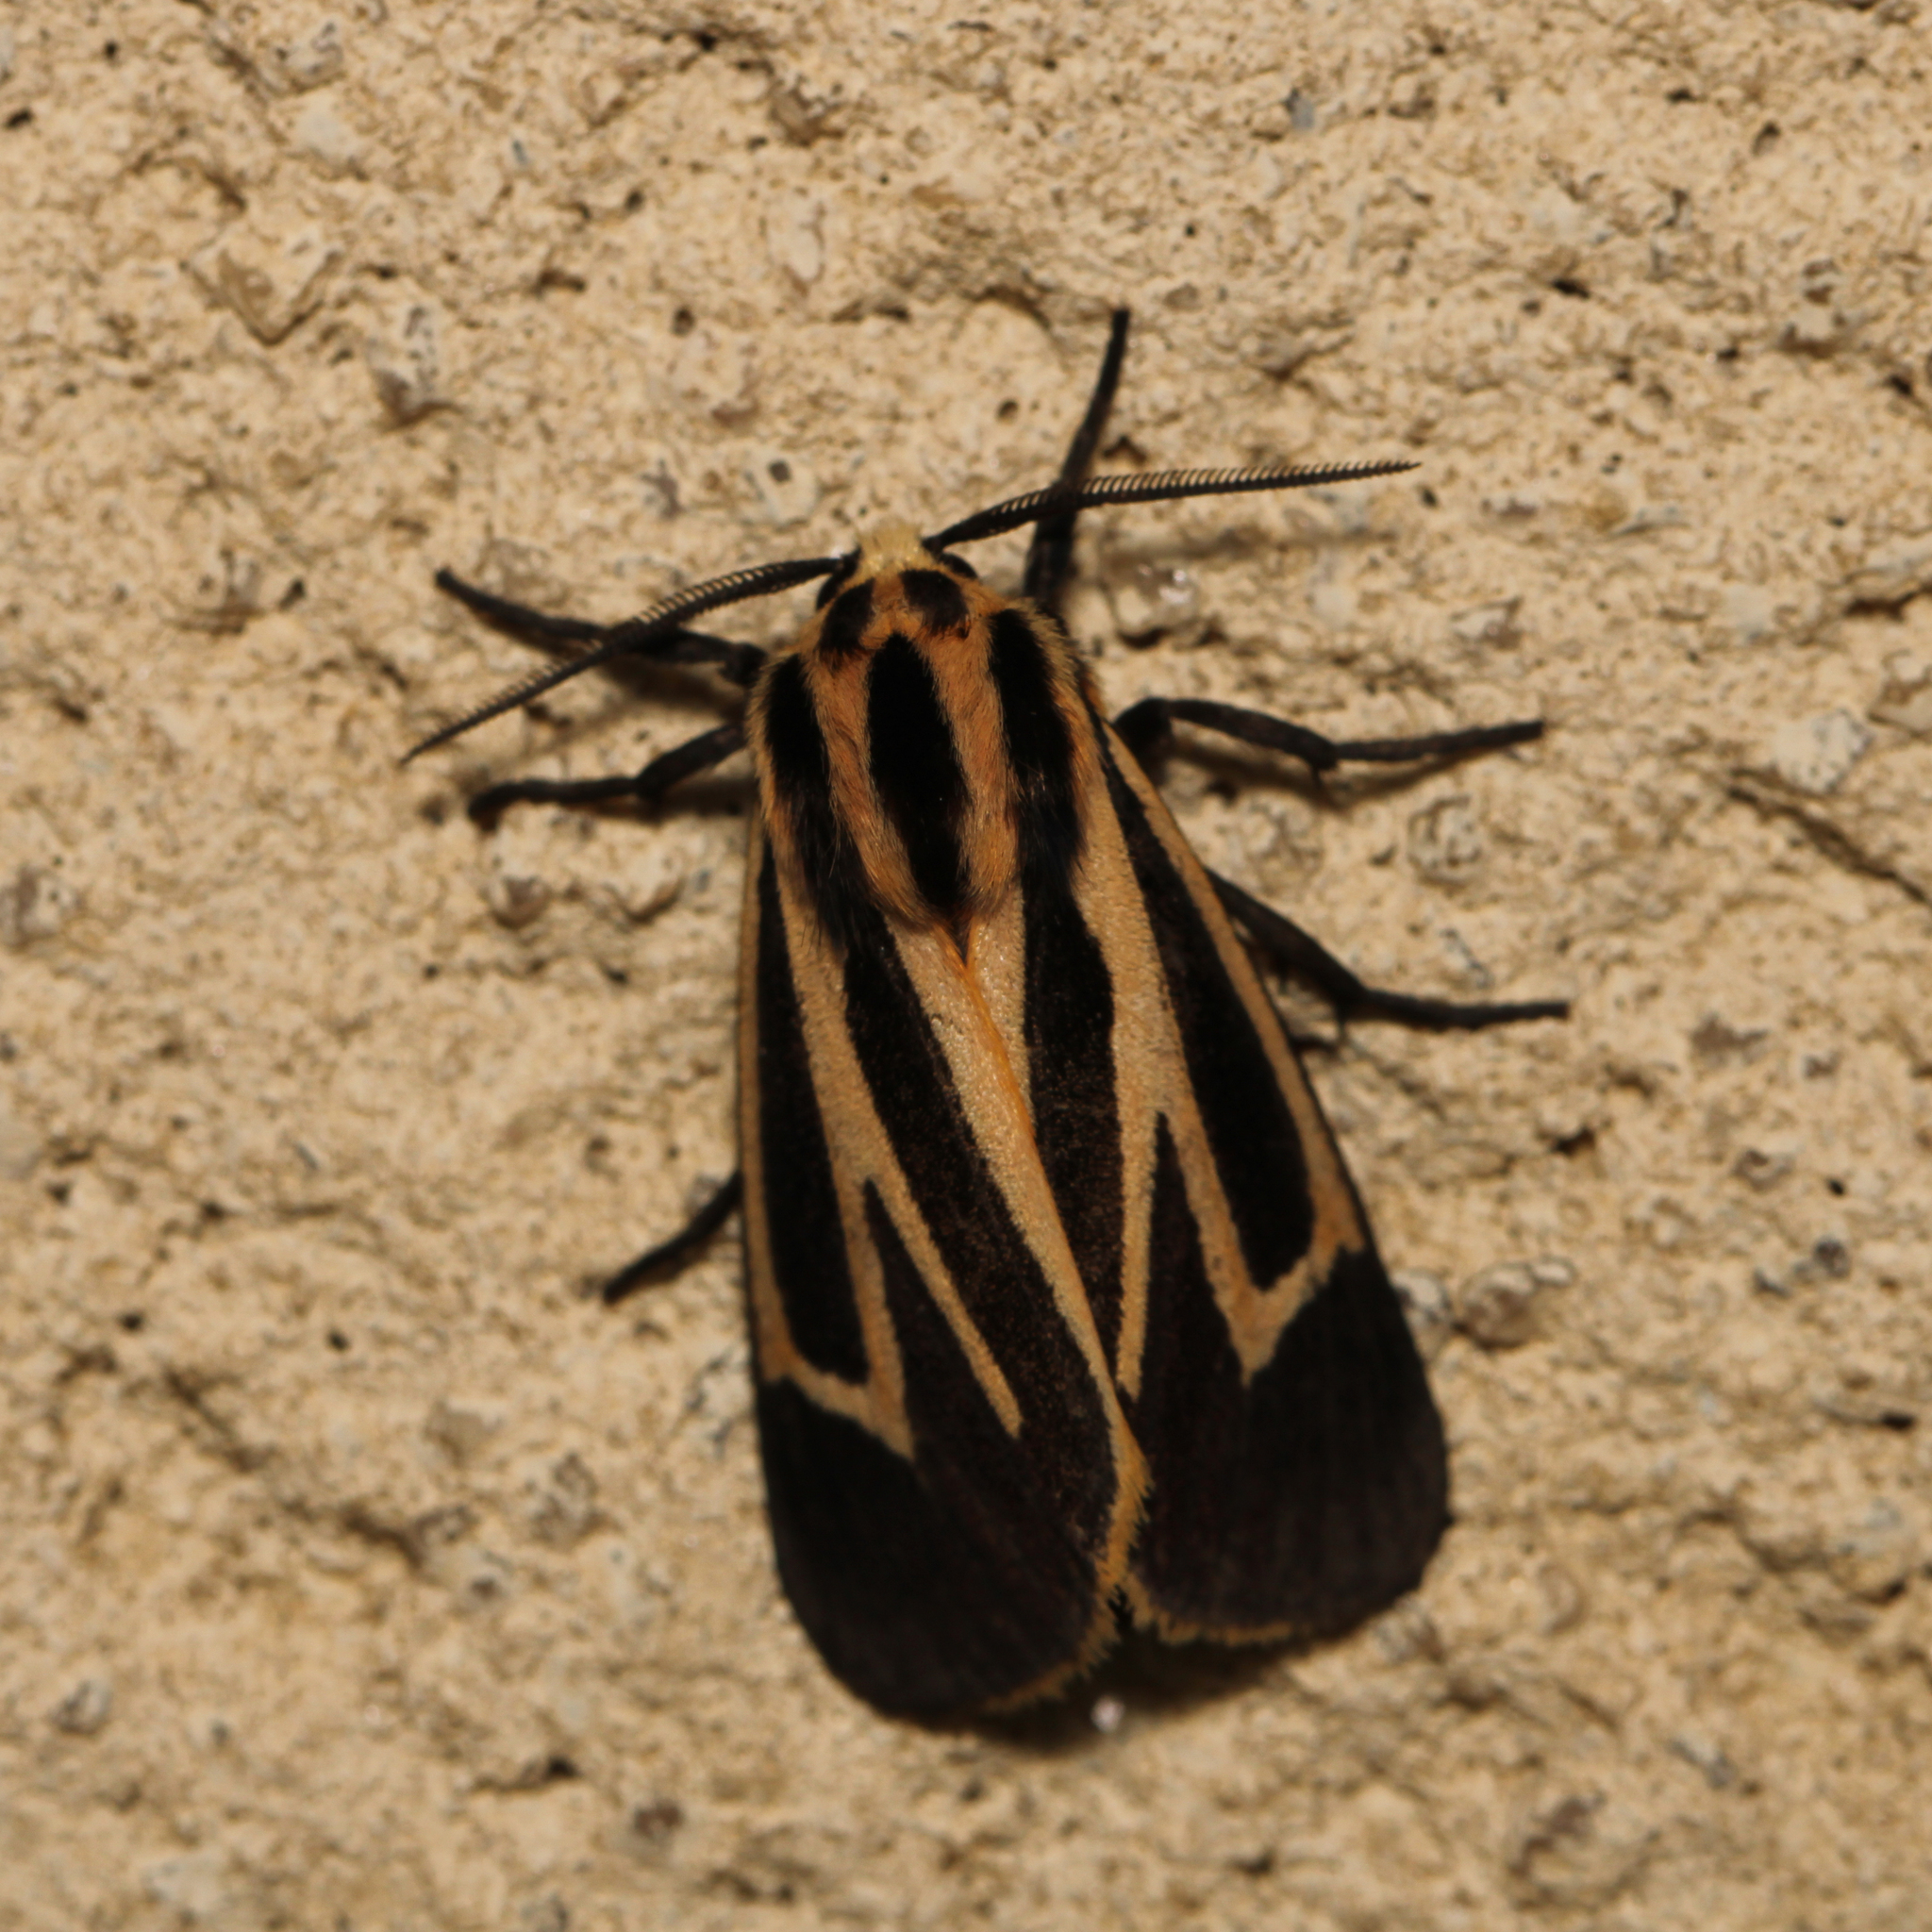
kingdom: Animalia
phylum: Arthropoda
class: Insecta
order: Lepidoptera
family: Erebidae
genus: Apantesis
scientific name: Apantesis phalerata
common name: Harnessed tiger moth
